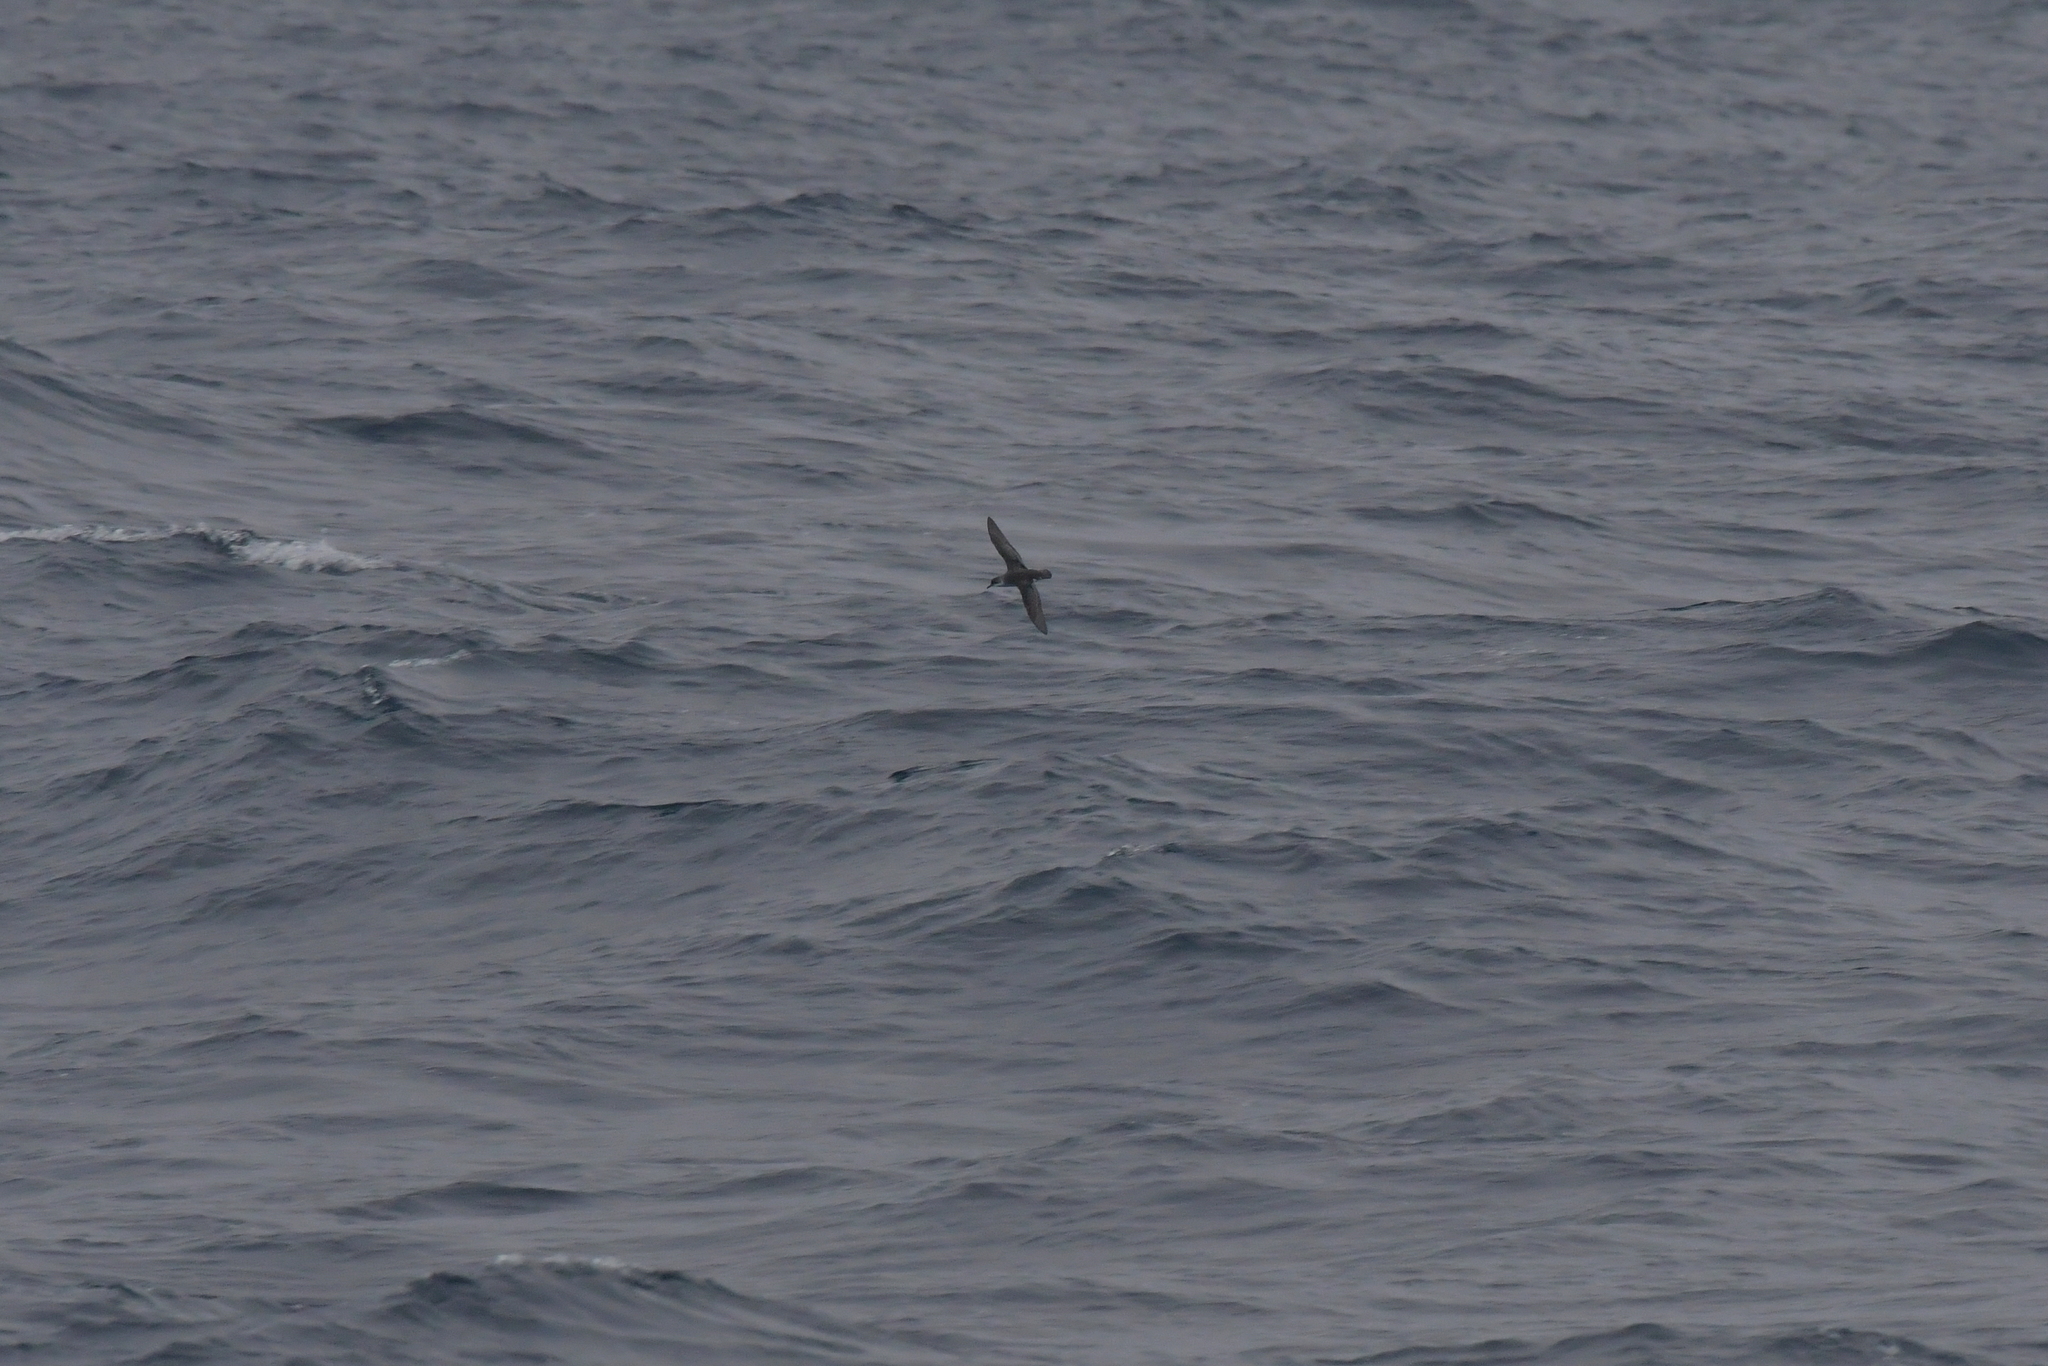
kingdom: Animalia
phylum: Chordata
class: Aves
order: Procellariiformes
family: Procellariidae
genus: Puffinus
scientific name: Puffinus assimilis
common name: Little shearwater
